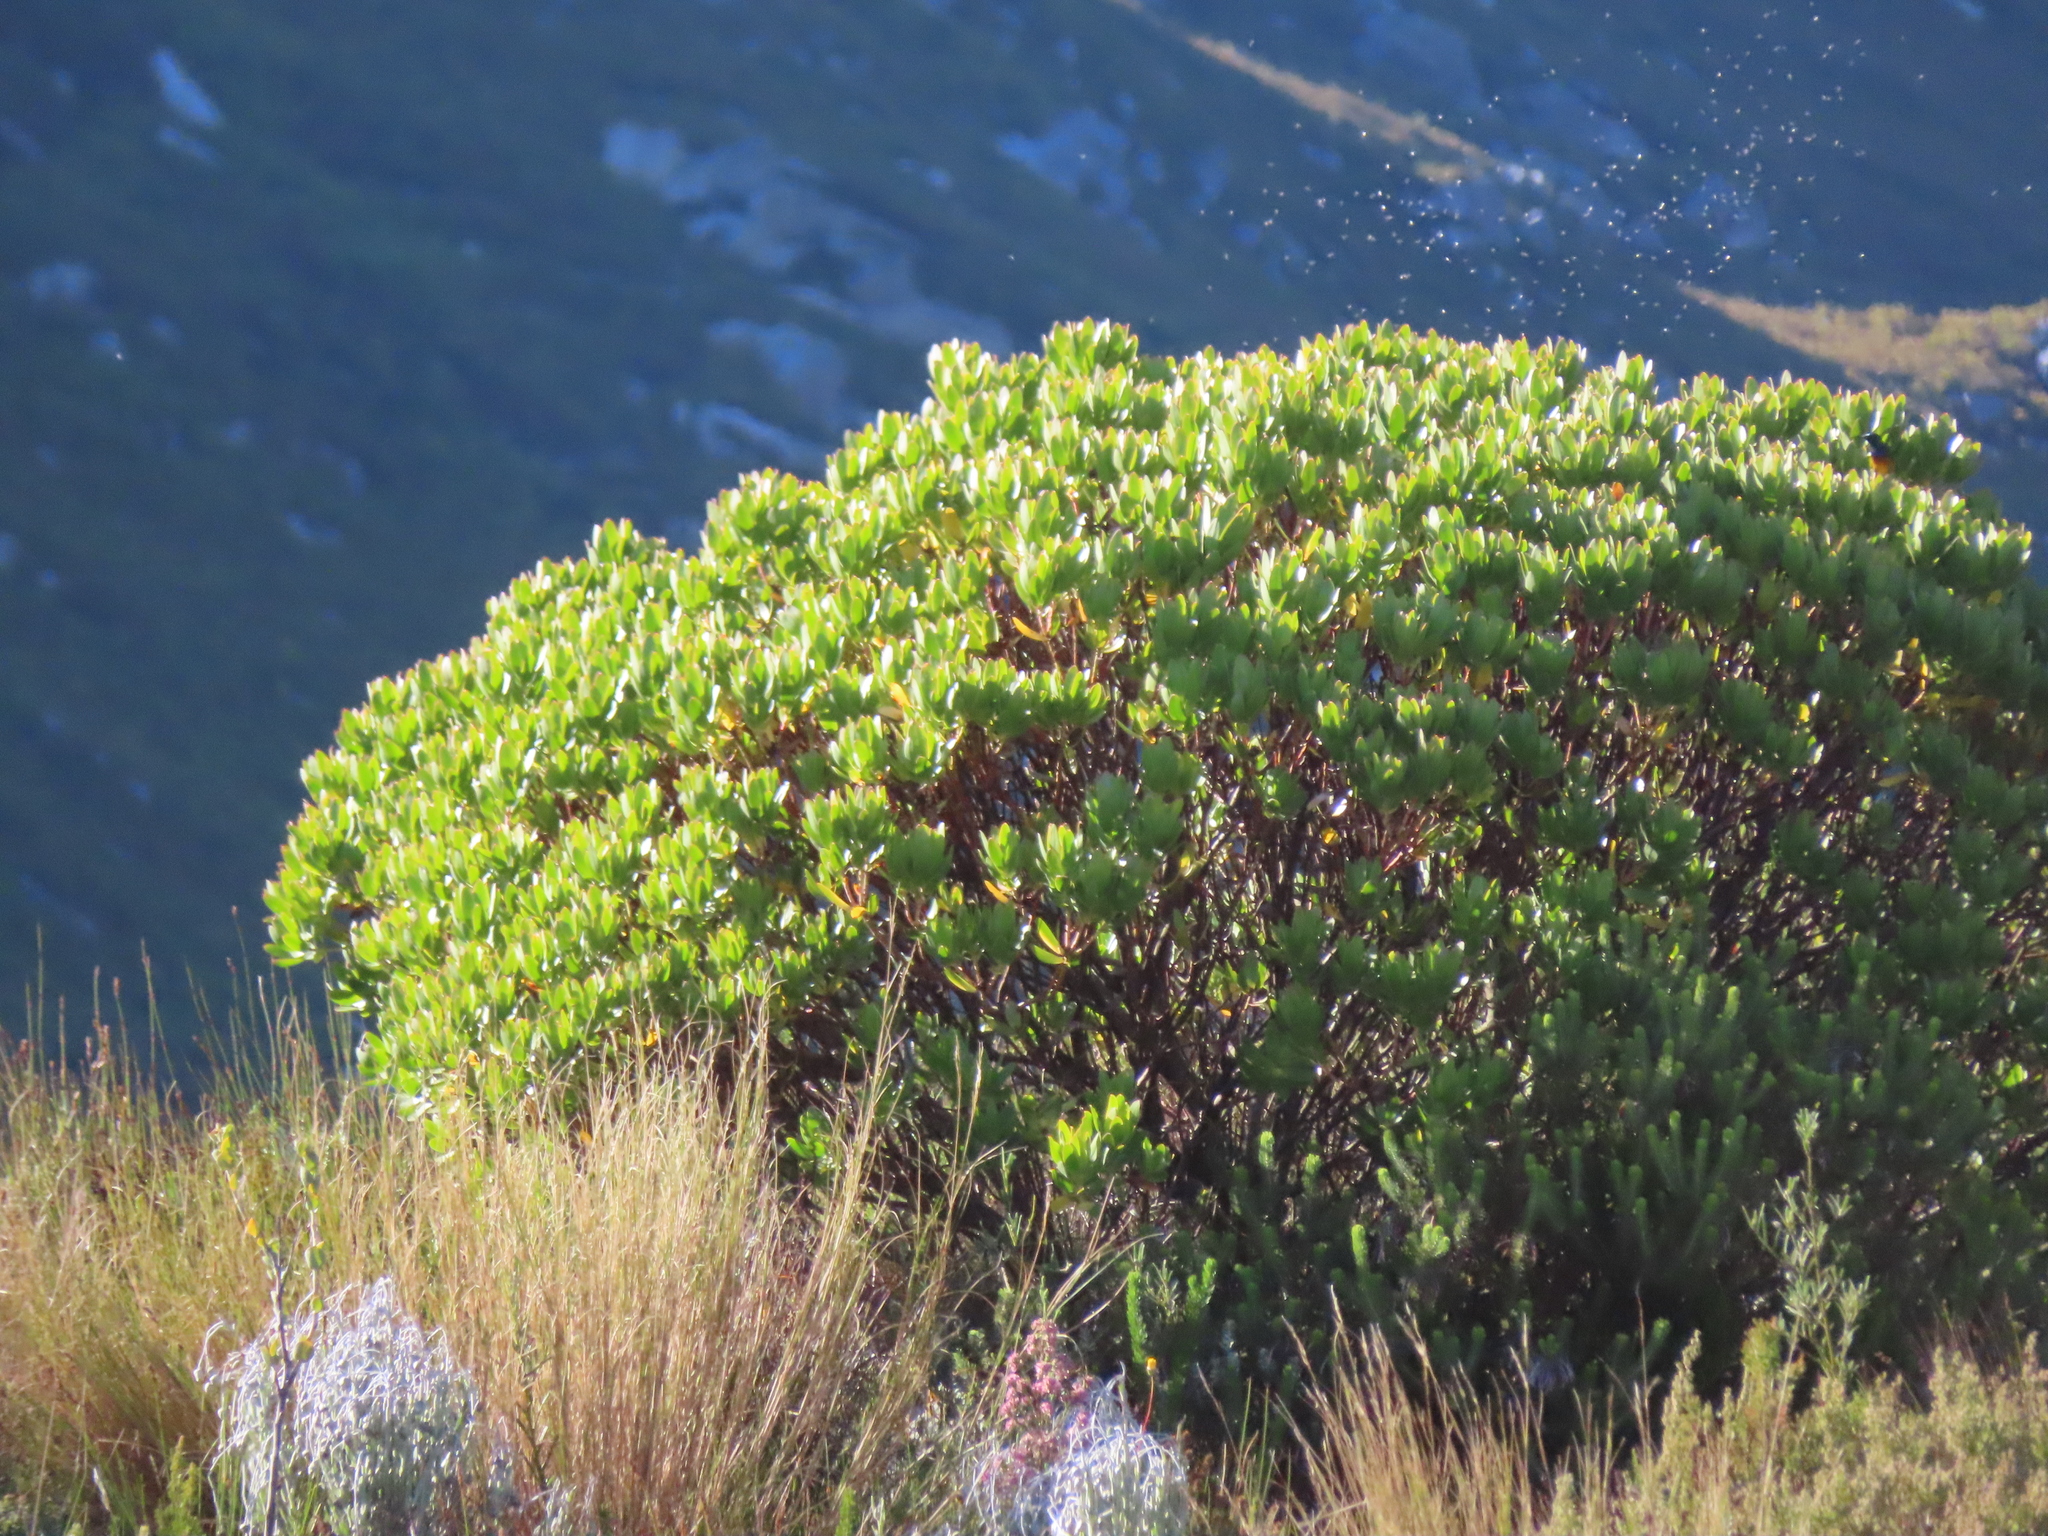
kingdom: Plantae
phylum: Tracheophyta
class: Magnoliopsida
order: Proteales
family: Proteaceae
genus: Leucadendron
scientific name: Leucadendron gandogeri
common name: Broad-leaf conebush
